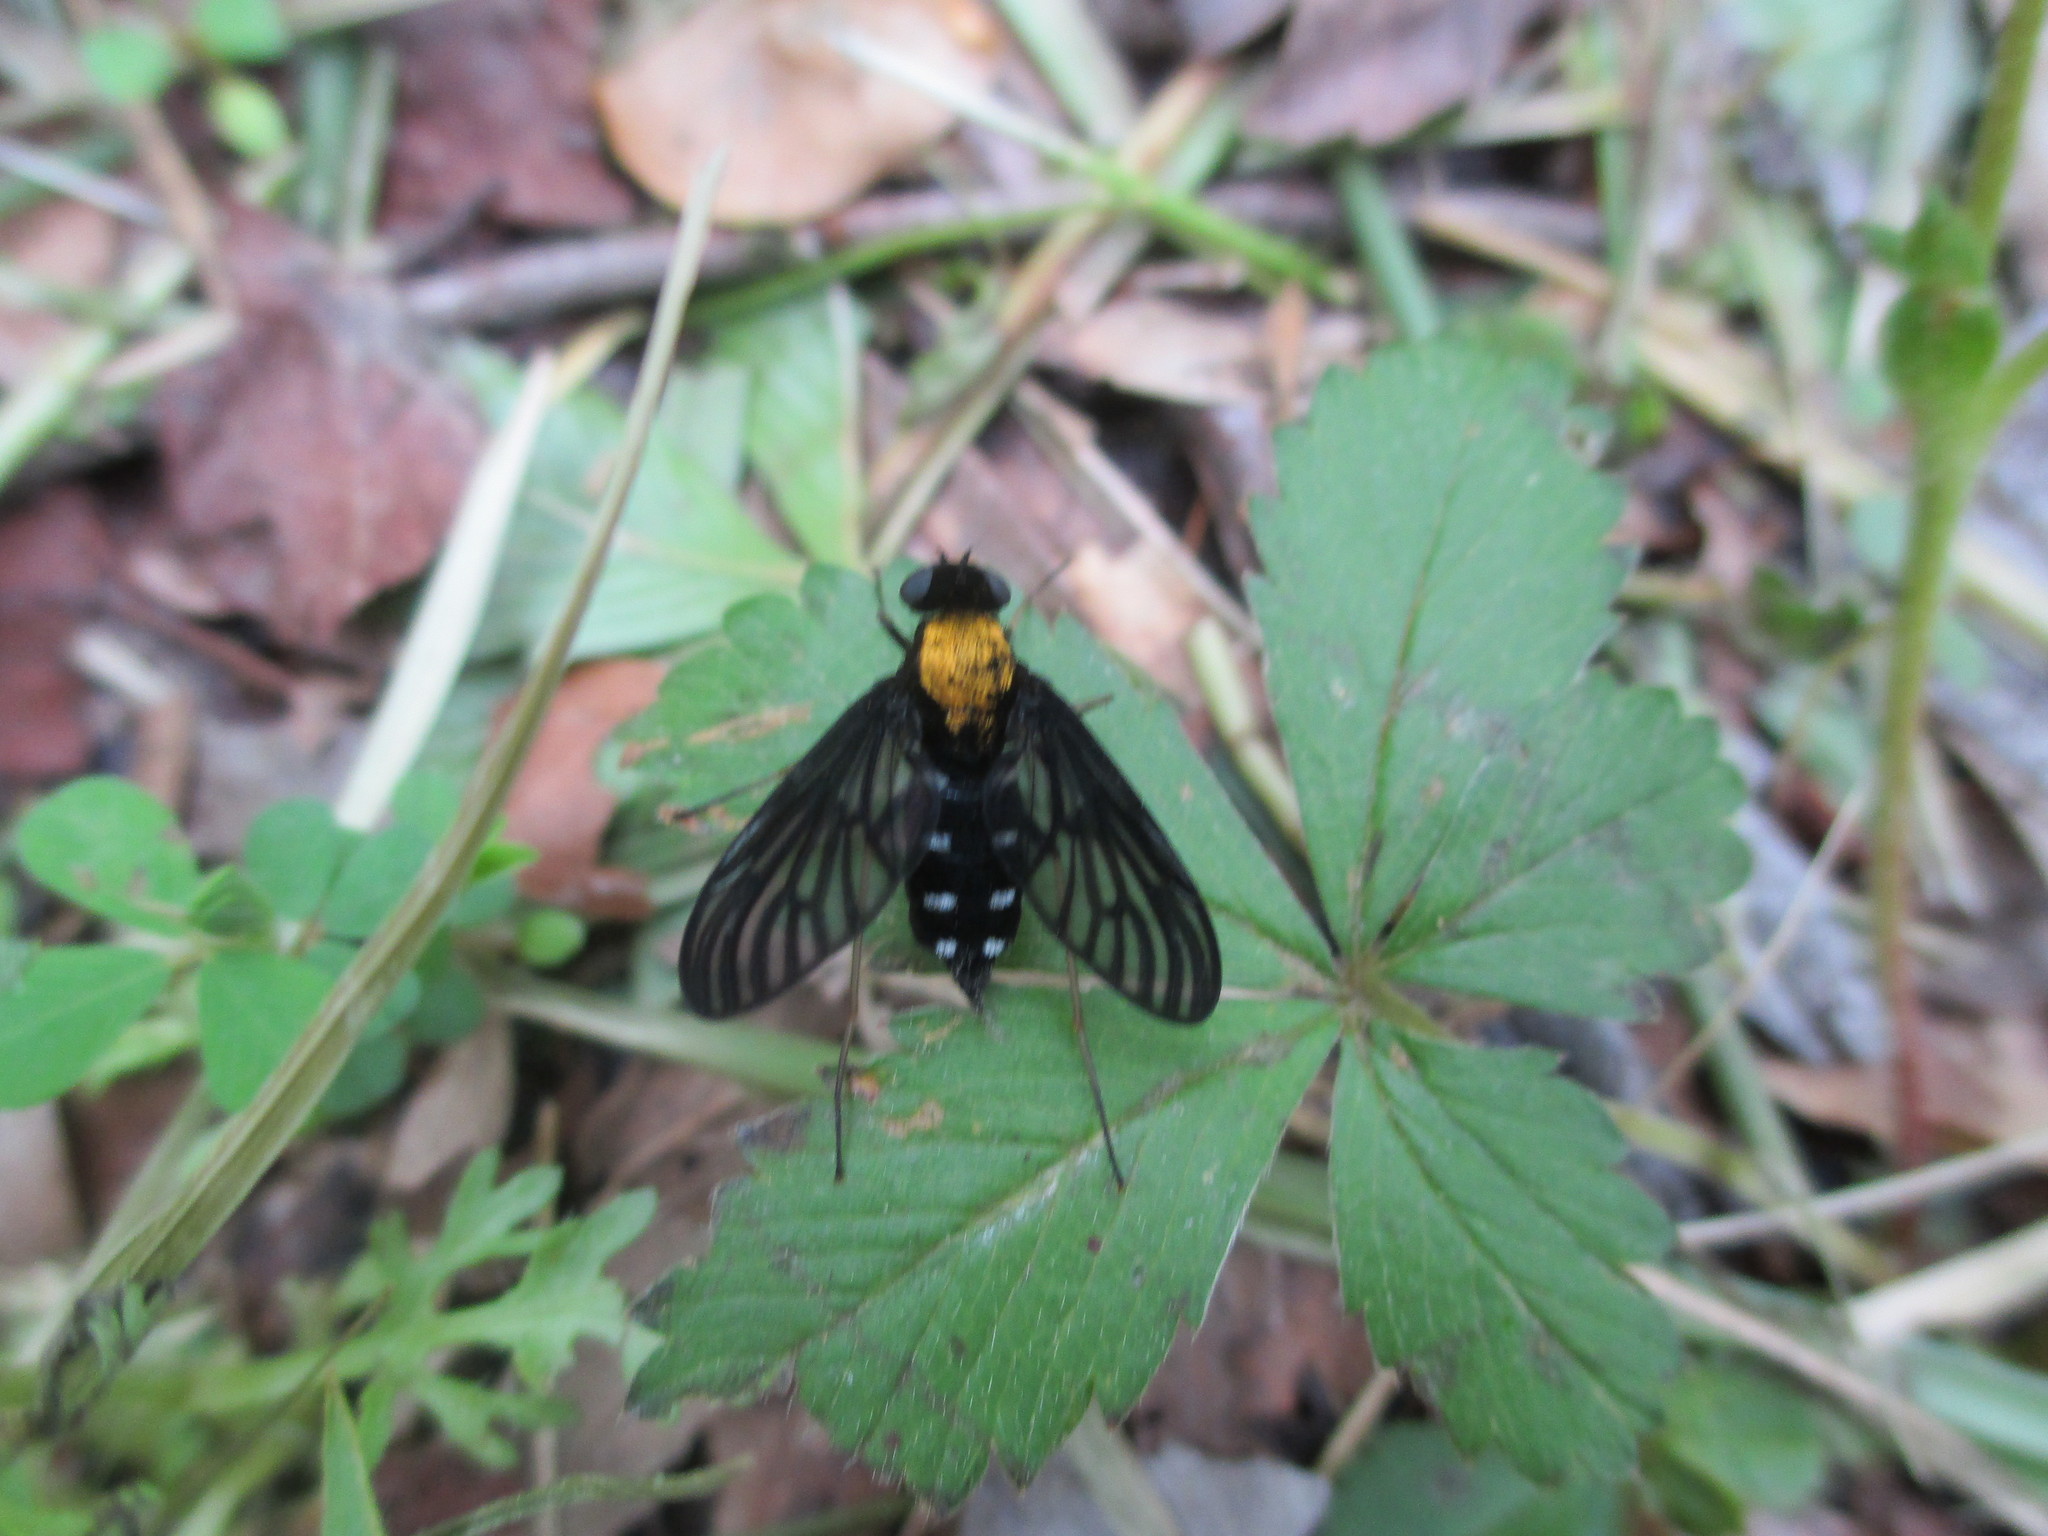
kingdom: Animalia
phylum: Arthropoda
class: Insecta
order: Diptera
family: Rhagionidae
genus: Chrysopilus
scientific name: Chrysopilus thoracicus
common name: Golden-backed snipe fly
